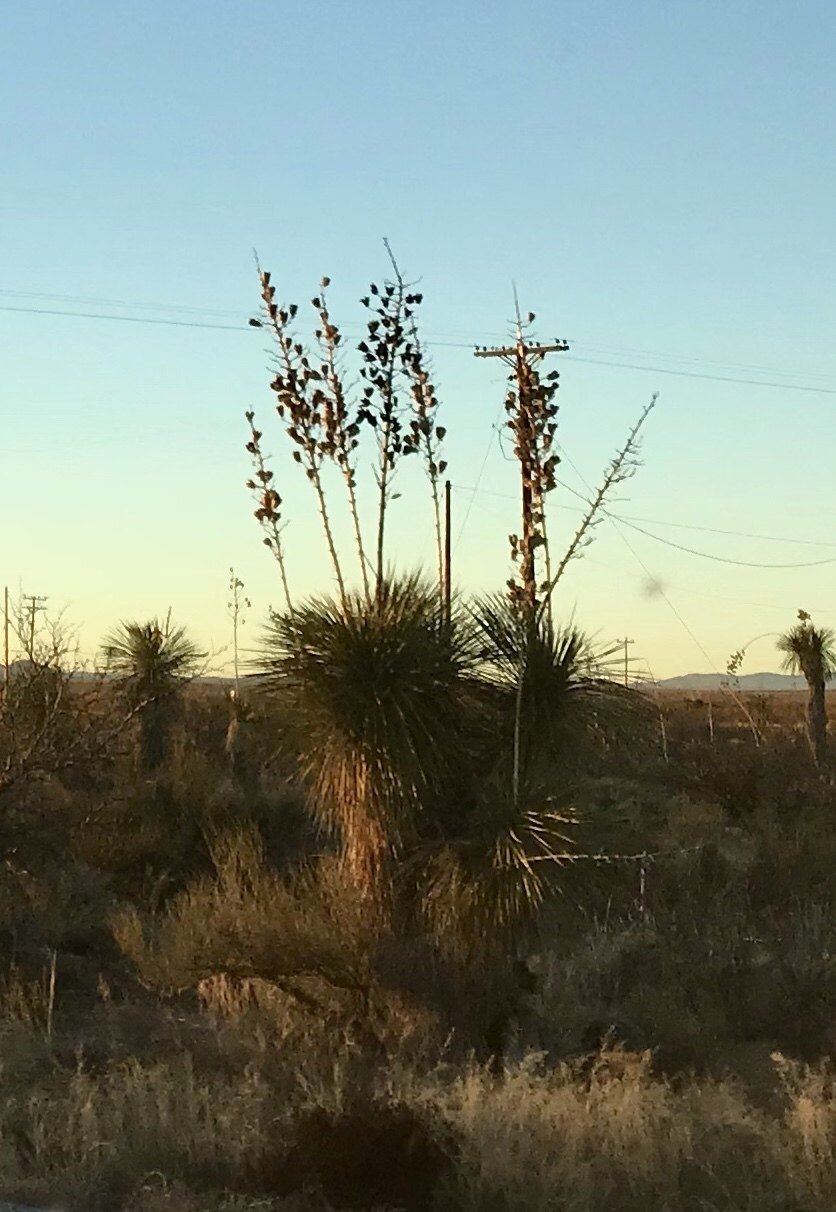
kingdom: Plantae
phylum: Tracheophyta
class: Liliopsida
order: Asparagales
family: Asparagaceae
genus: Yucca
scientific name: Yucca elata
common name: Palmella
